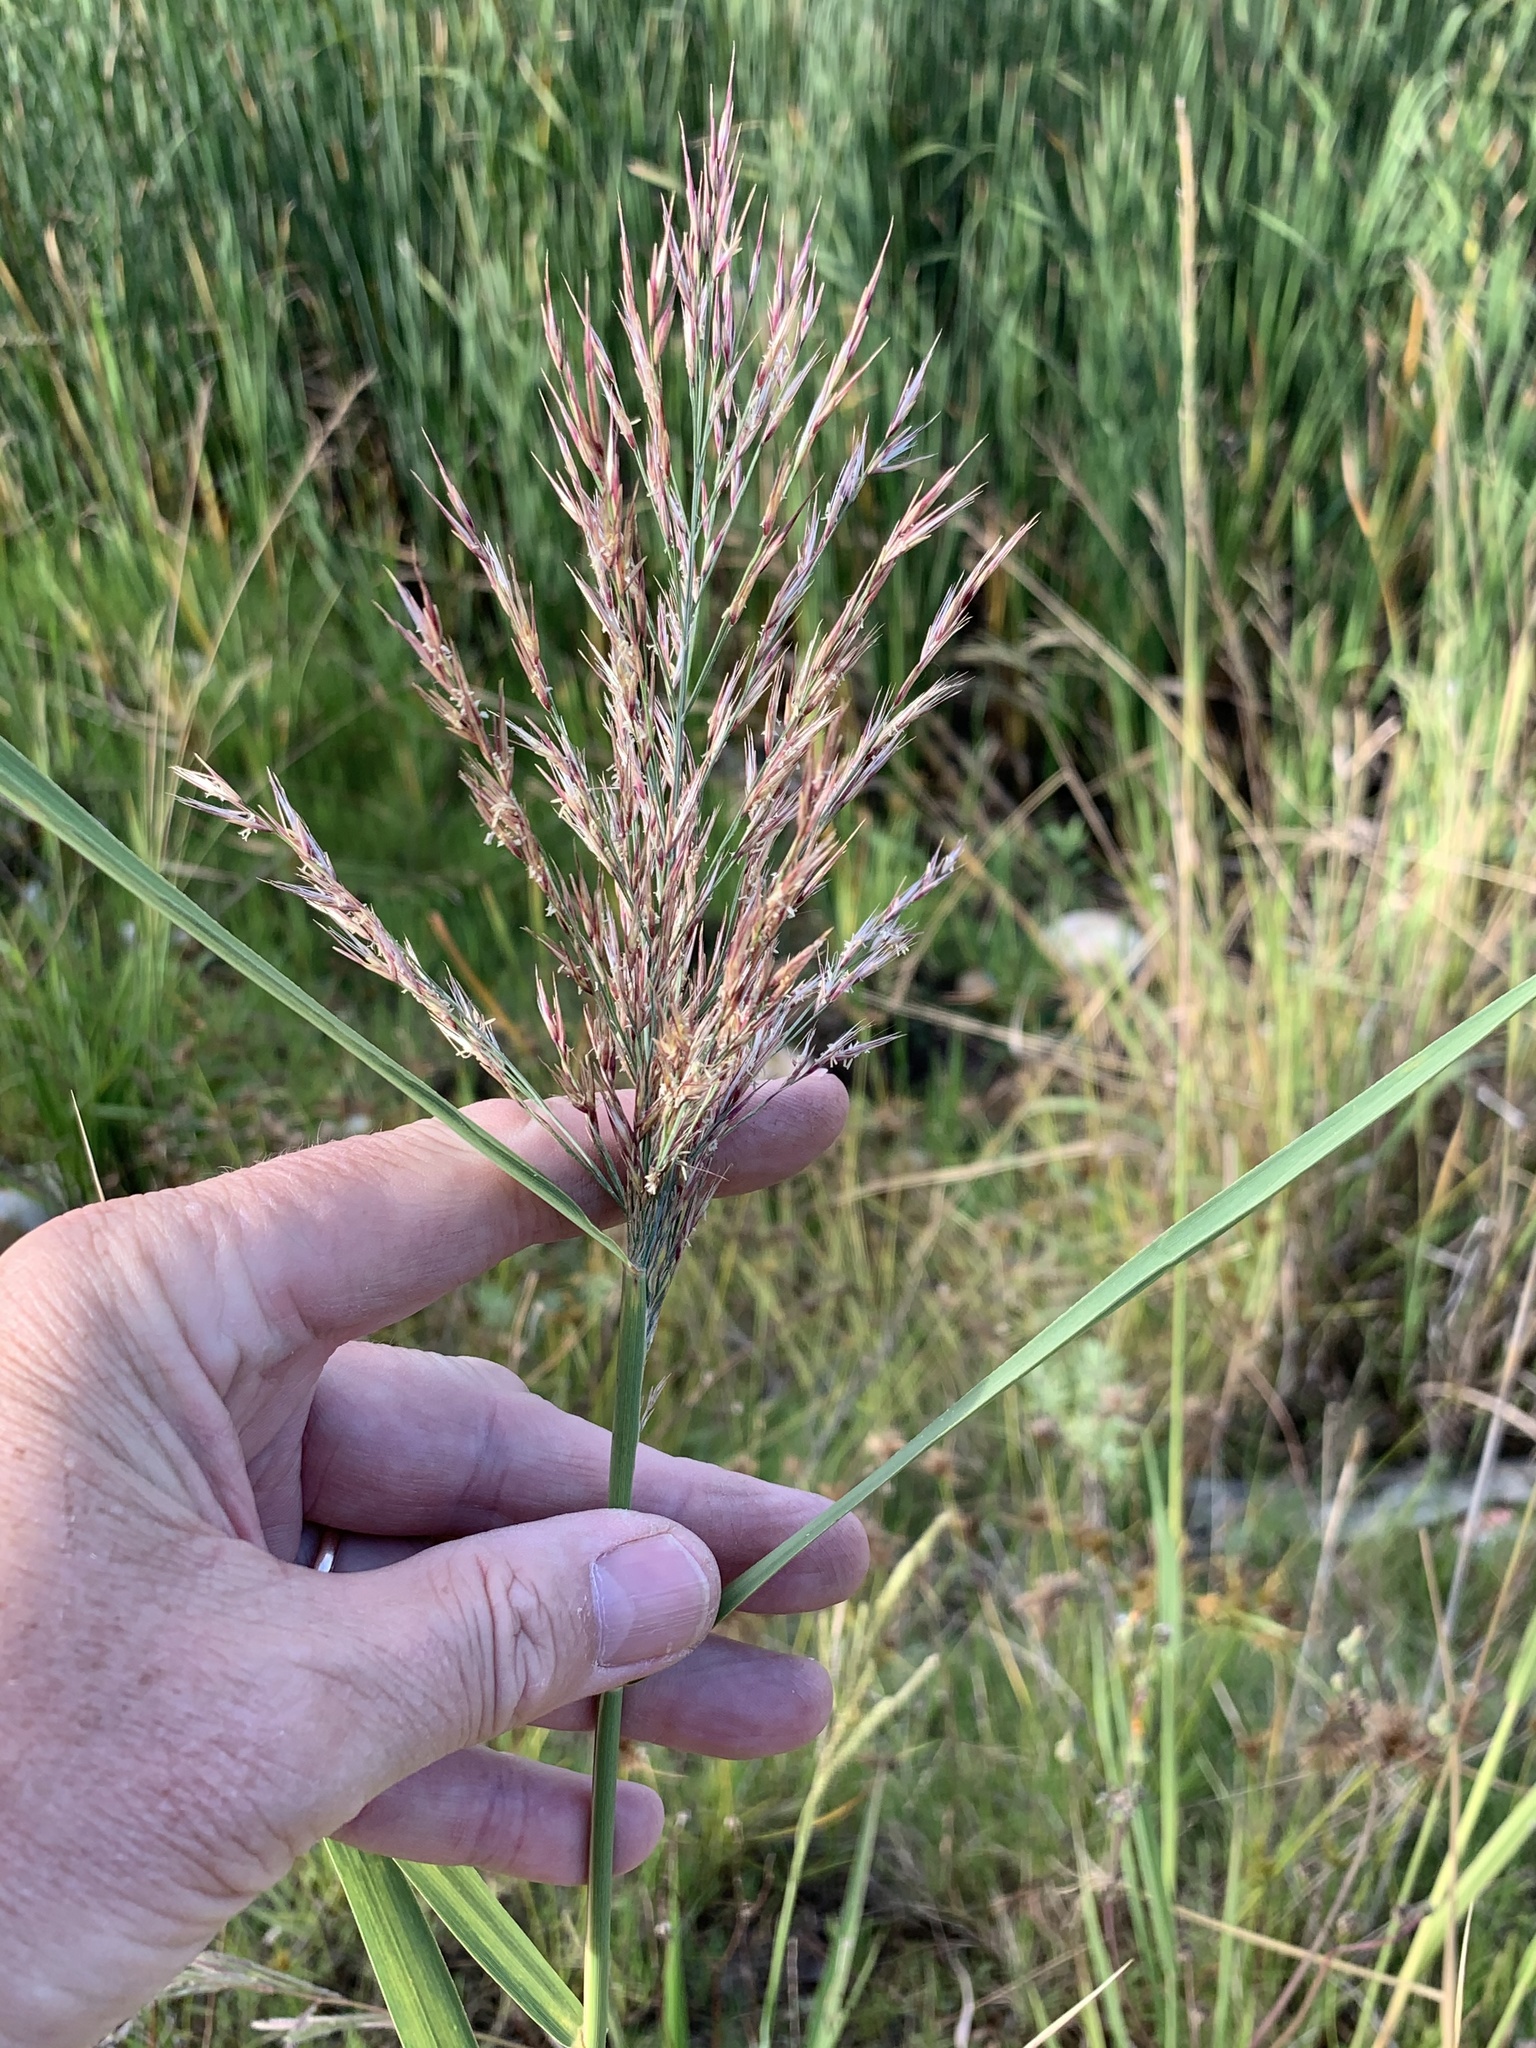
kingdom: Plantae
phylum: Tracheophyta
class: Liliopsida
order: Poales
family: Poaceae
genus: Phragmites
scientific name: Phragmites australis
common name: Common reed
